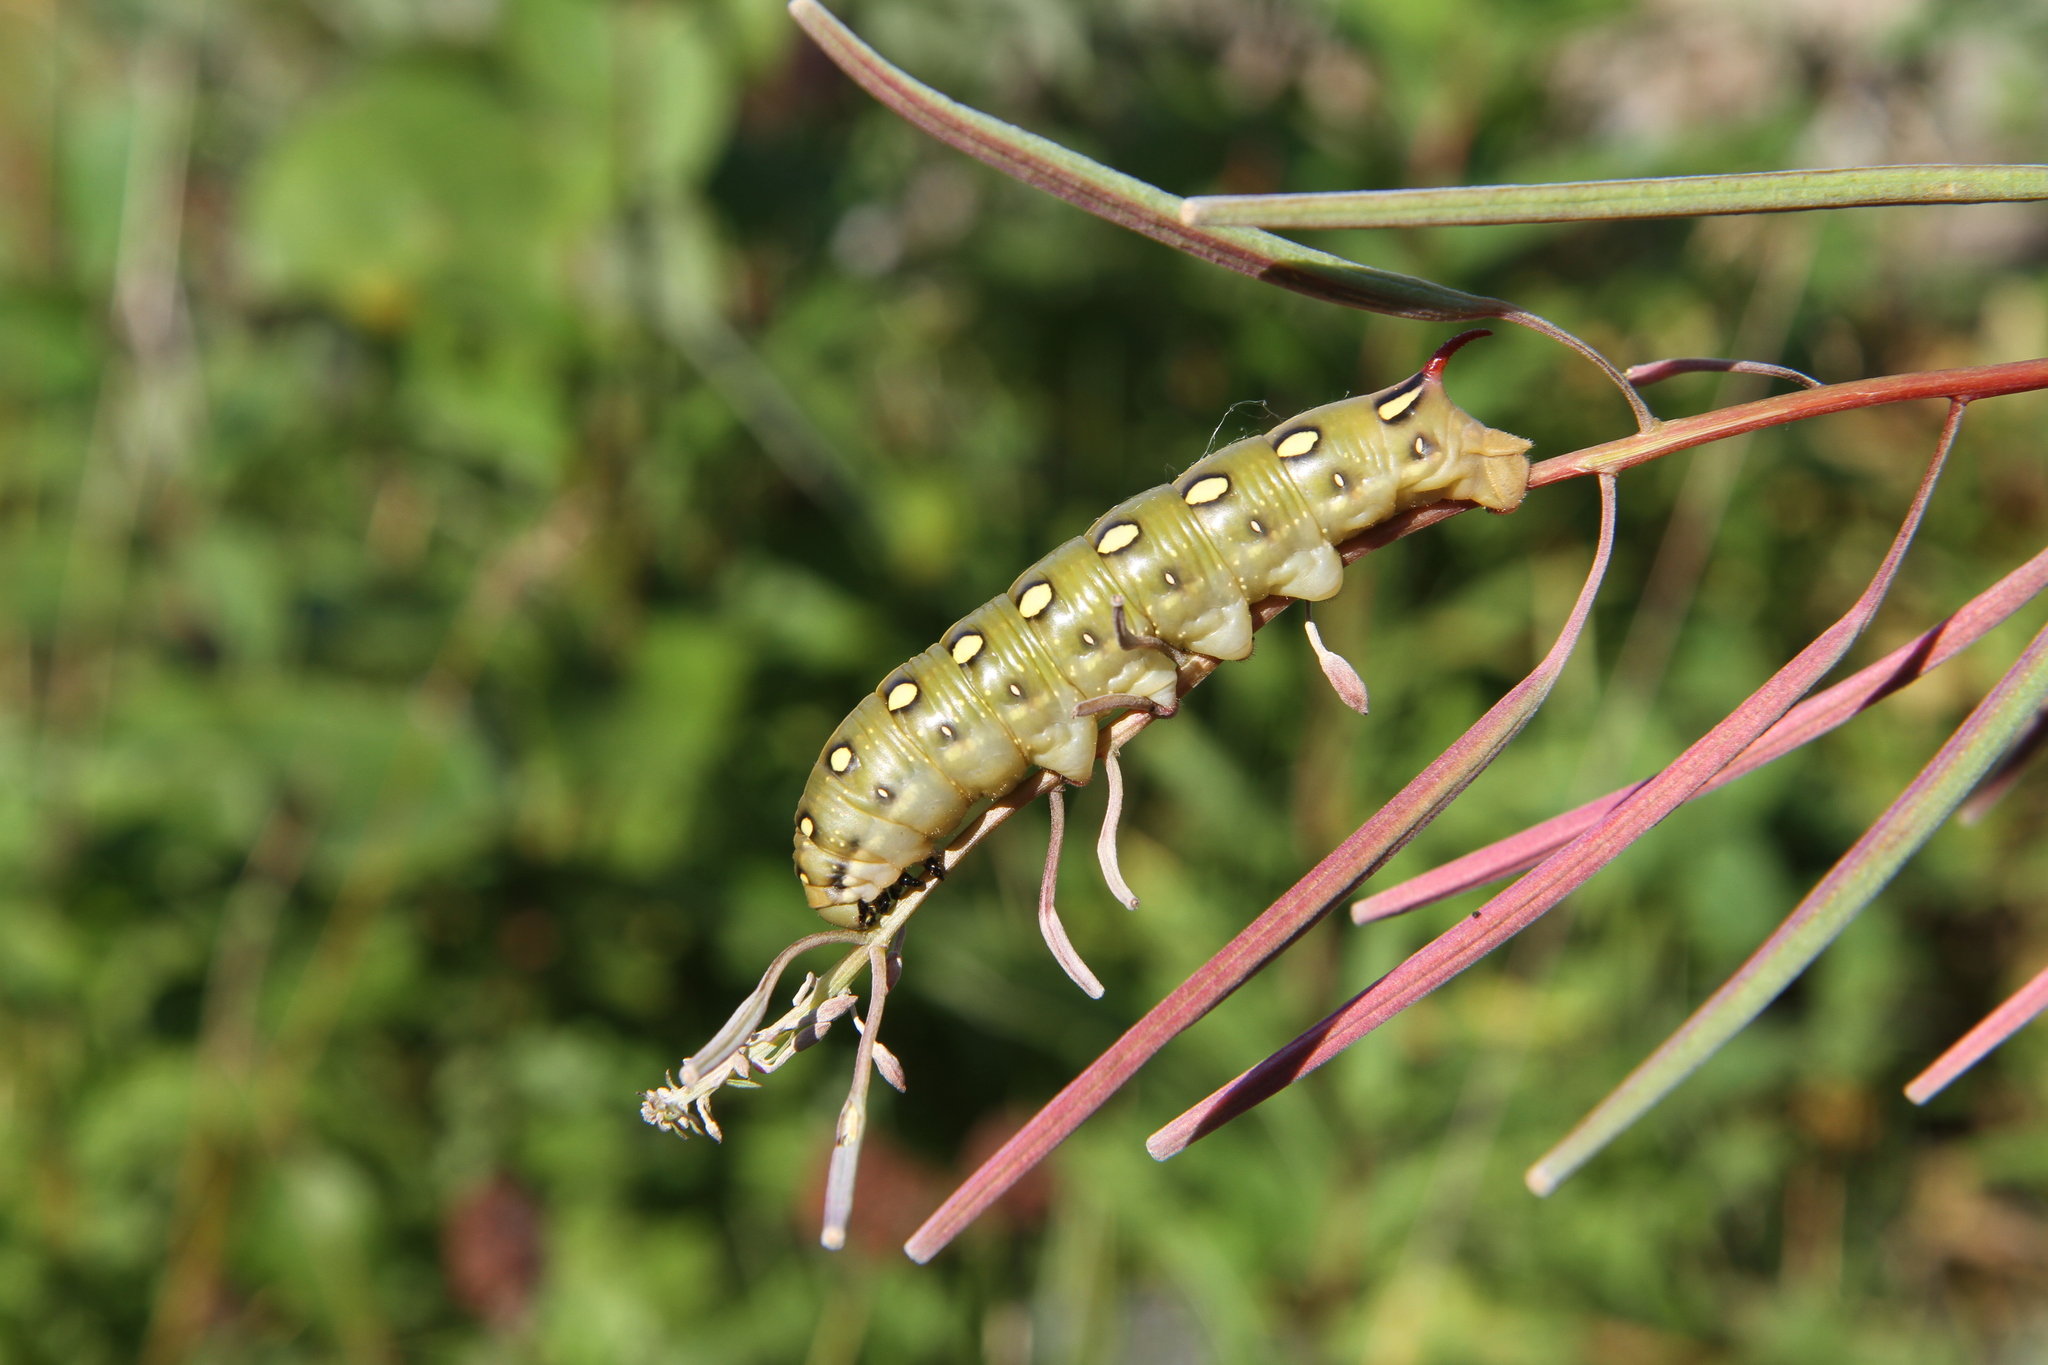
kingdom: Animalia
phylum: Arthropoda
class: Insecta
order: Lepidoptera
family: Sphingidae
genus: Hyles
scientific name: Hyles gallii
